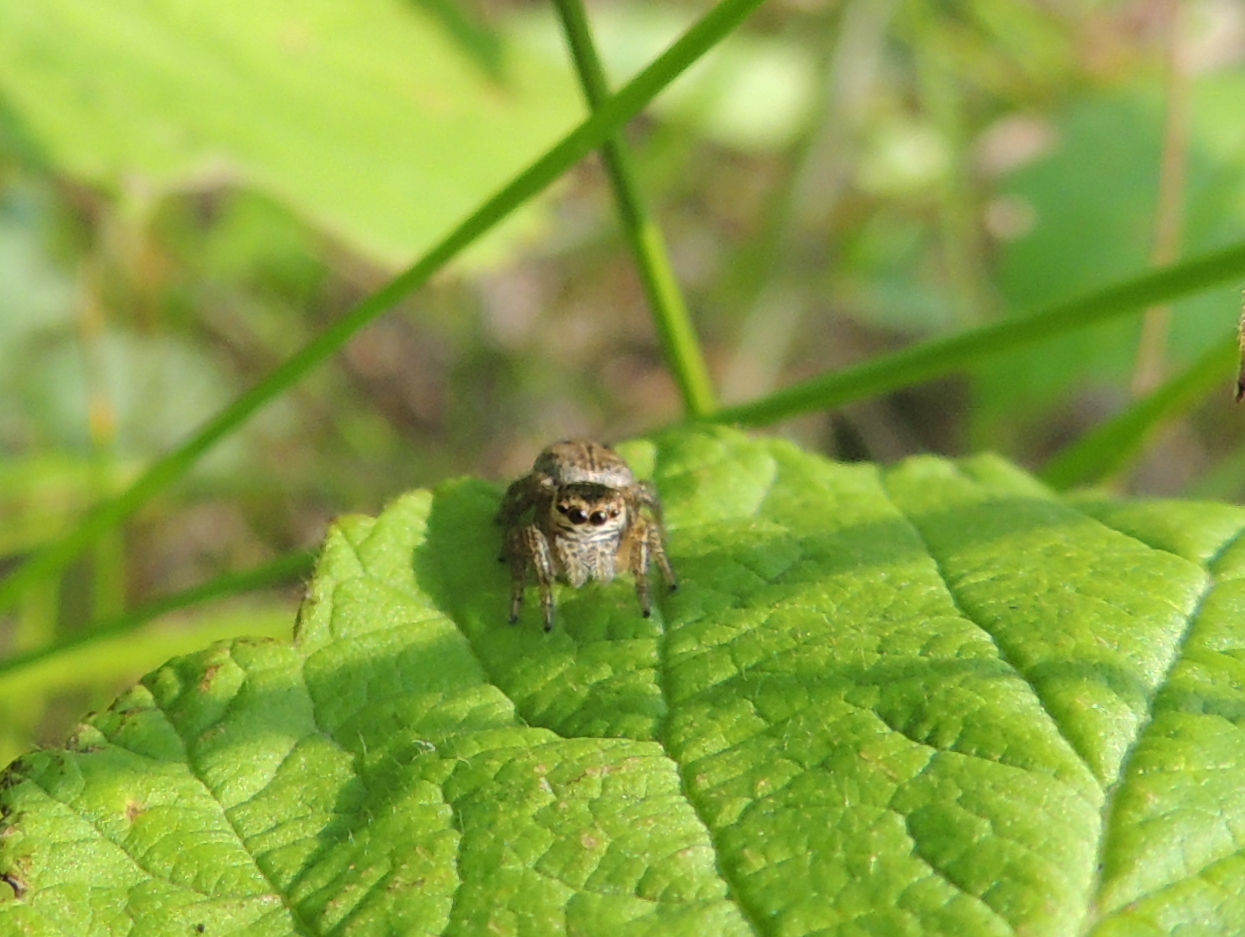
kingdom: Animalia
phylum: Arthropoda
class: Arachnida
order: Araneae
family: Salticidae
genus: Evarcha
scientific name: Evarcha arcuata
